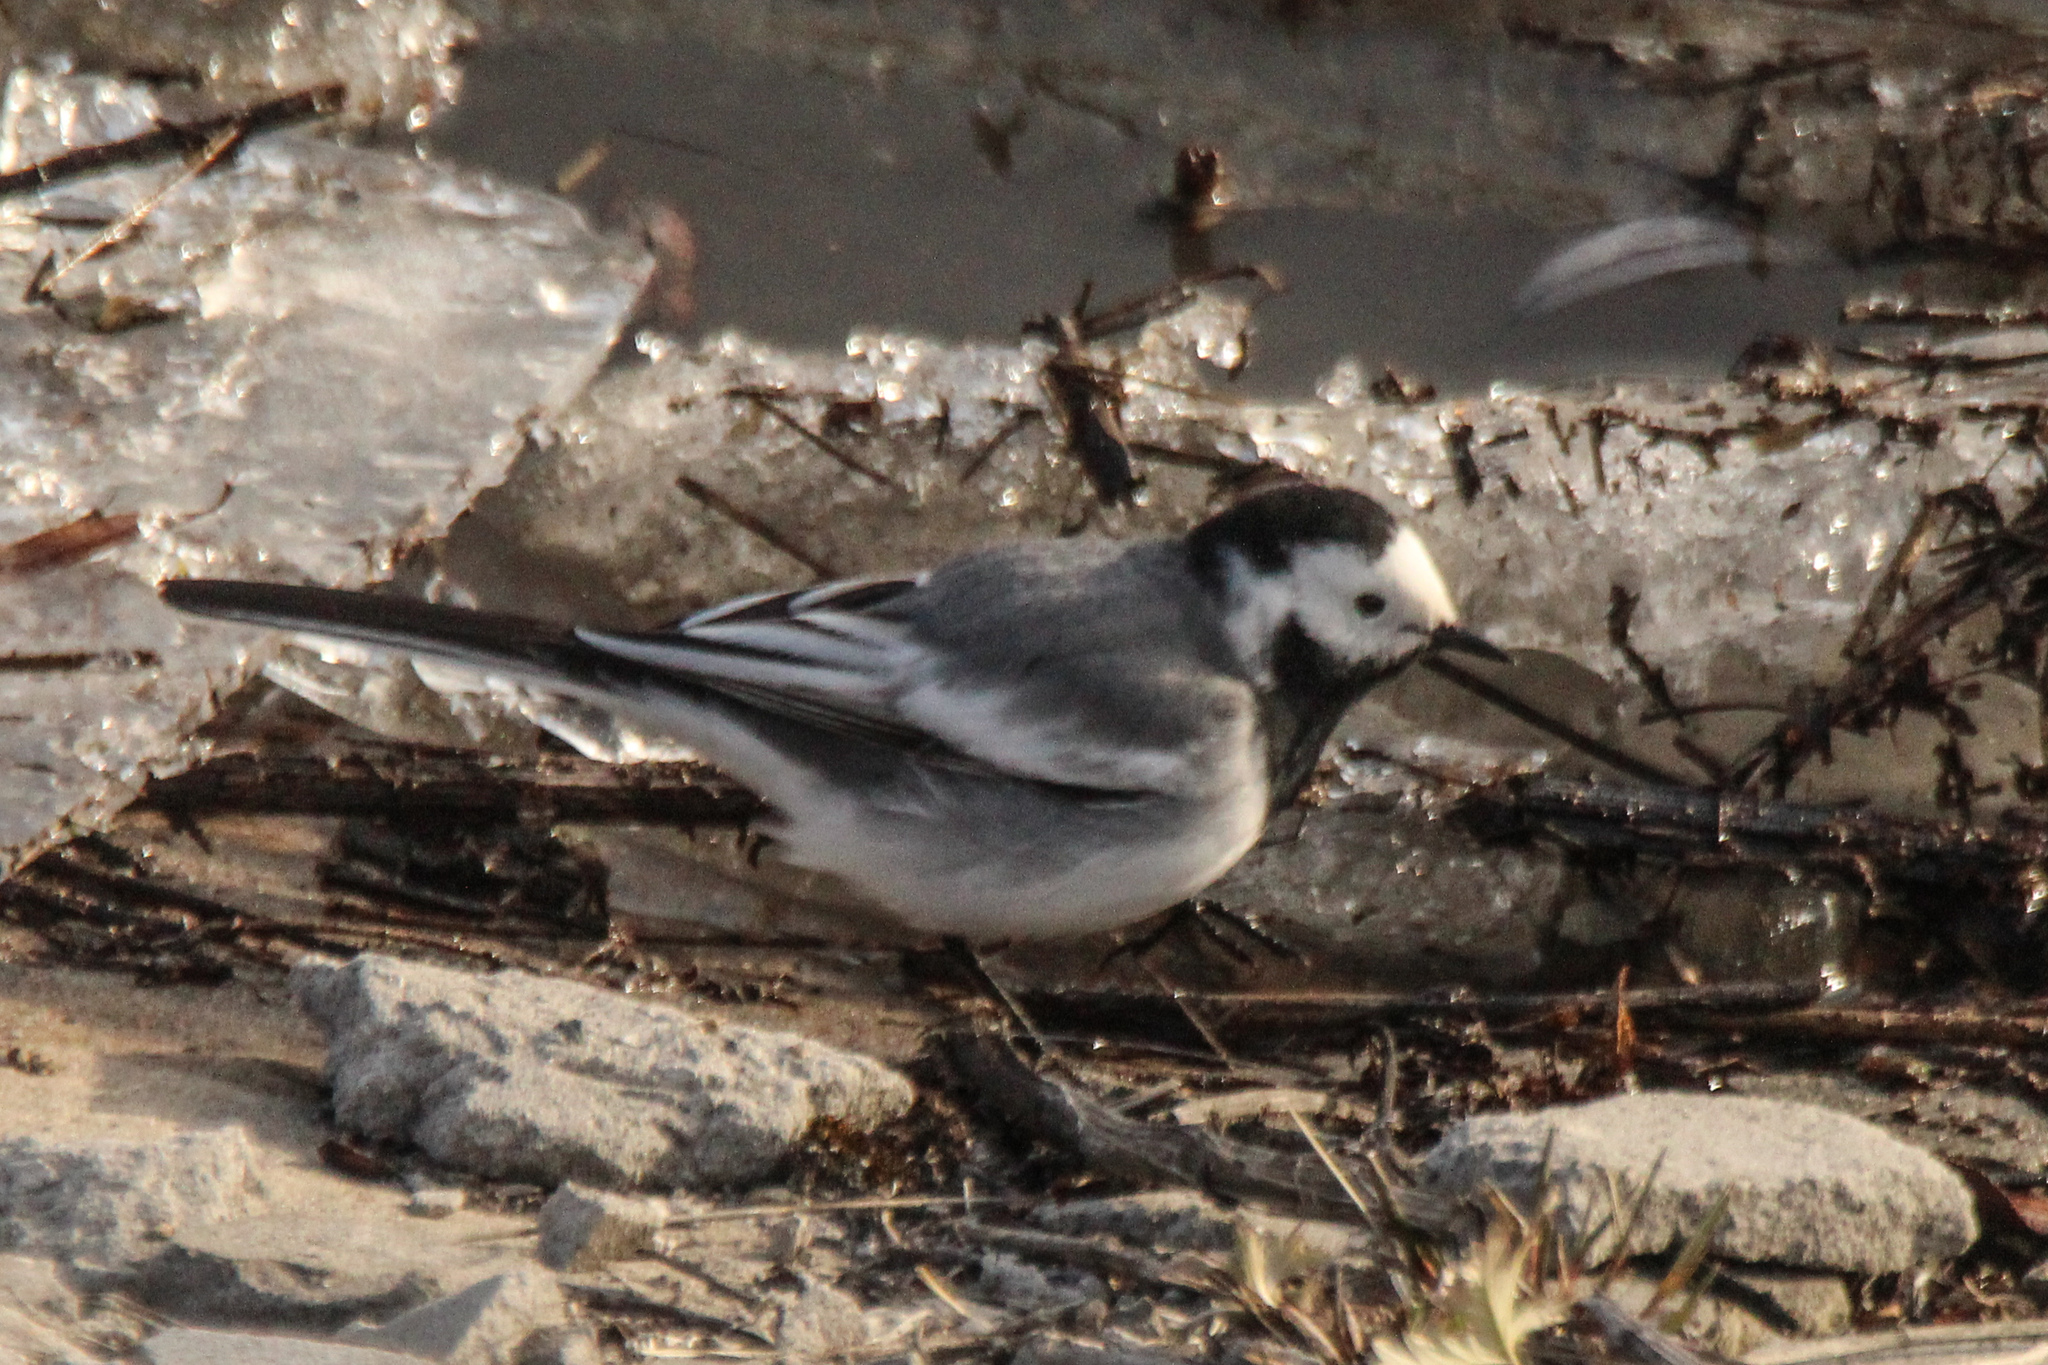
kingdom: Animalia
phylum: Chordata
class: Aves
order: Passeriformes
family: Motacillidae
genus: Motacilla
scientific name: Motacilla alba
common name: White wagtail
